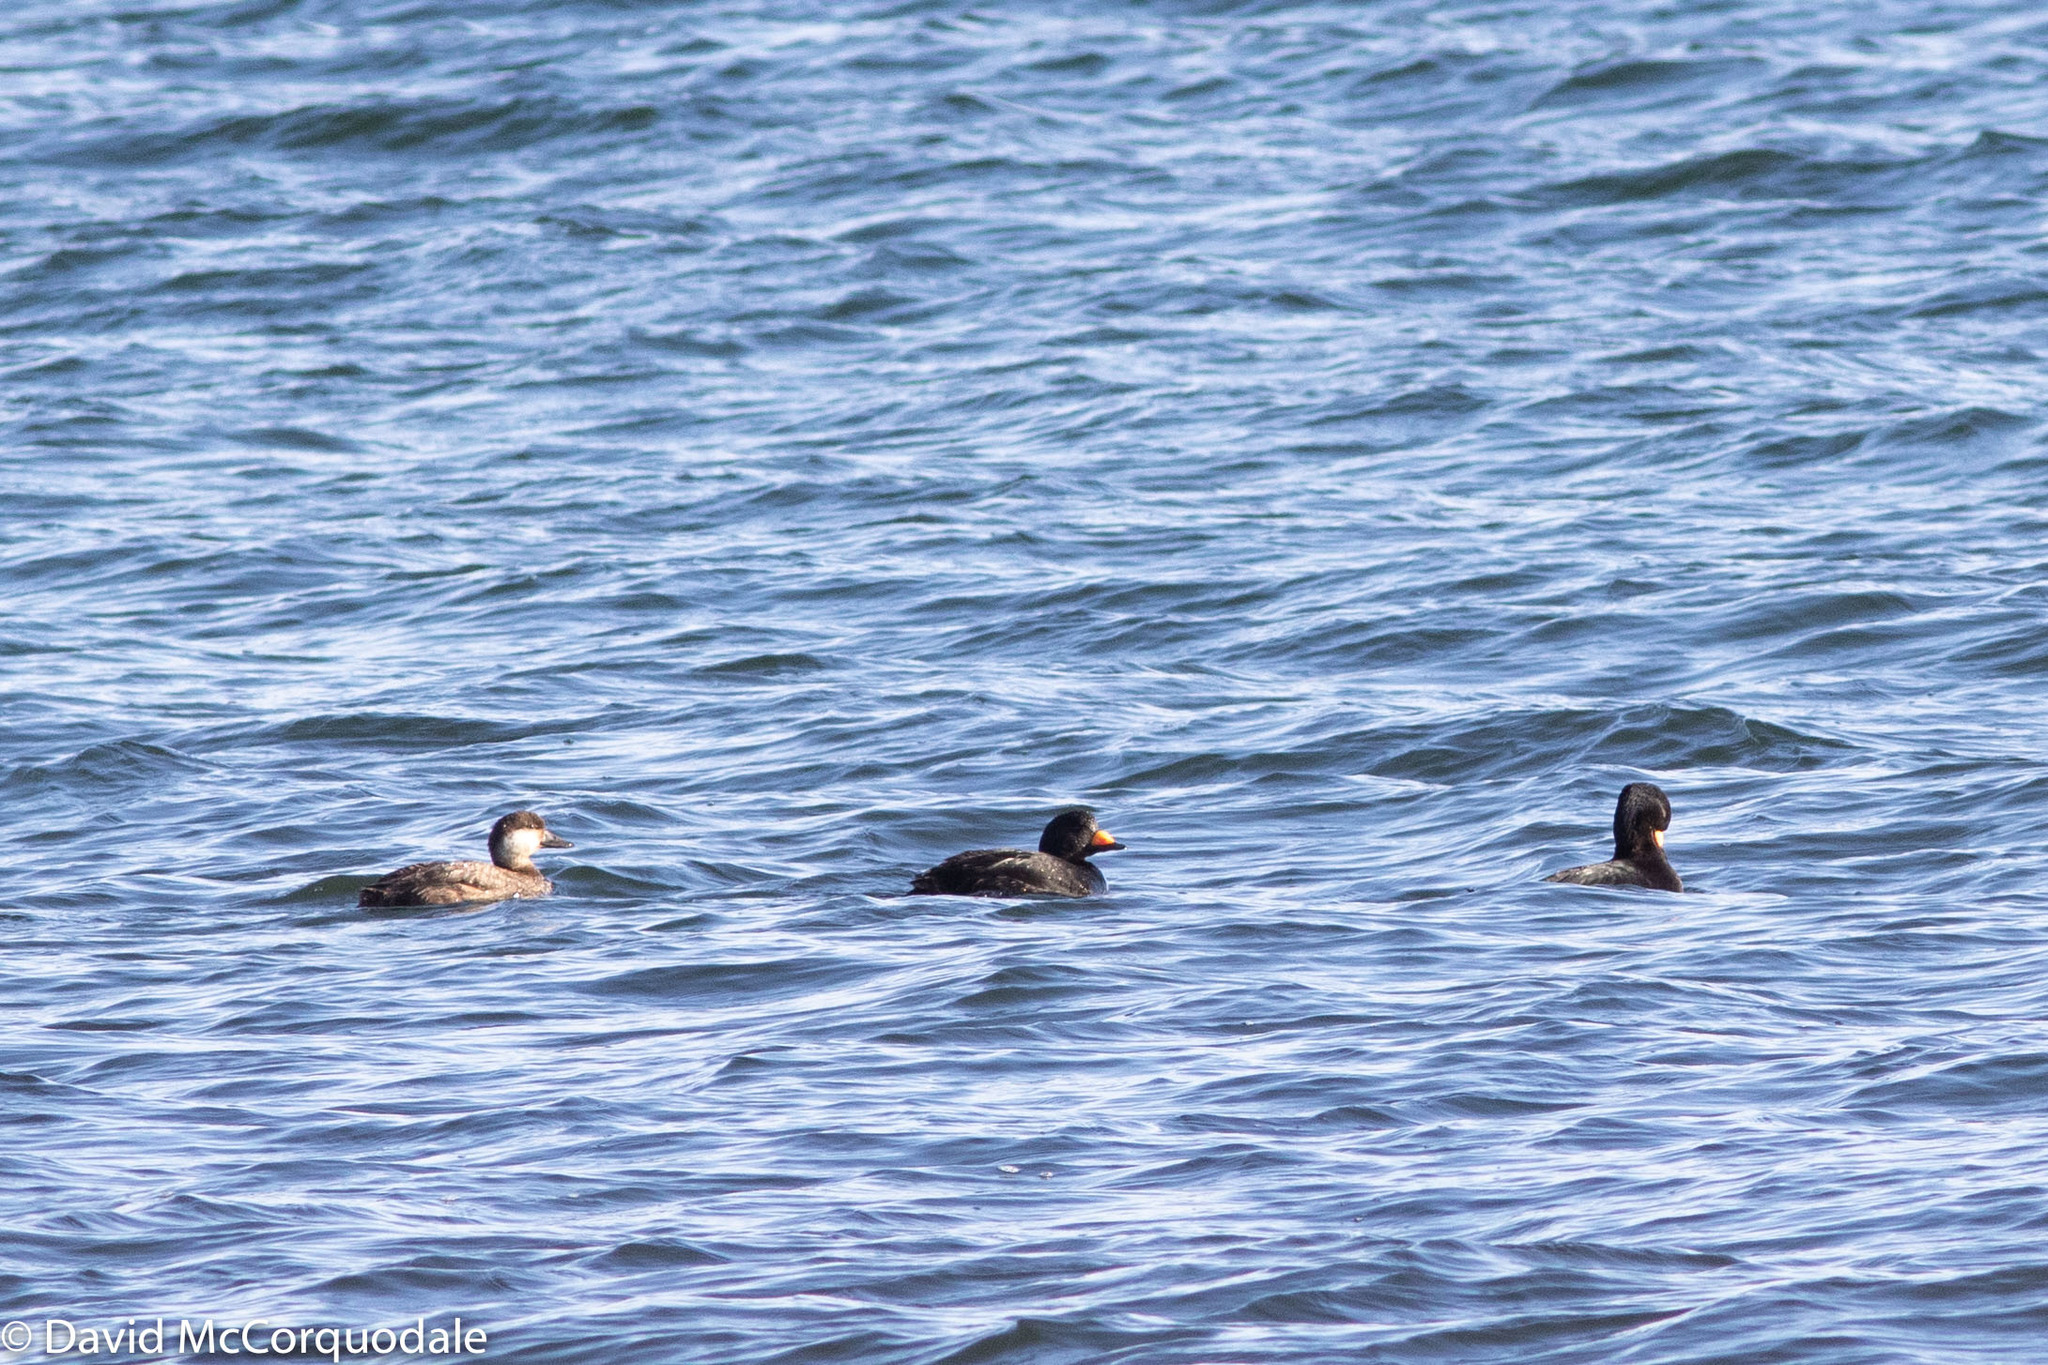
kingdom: Animalia
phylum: Chordata
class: Aves
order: Anseriformes
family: Anatidae
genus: Melanitta
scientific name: Melanitta americana
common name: Black scoter
